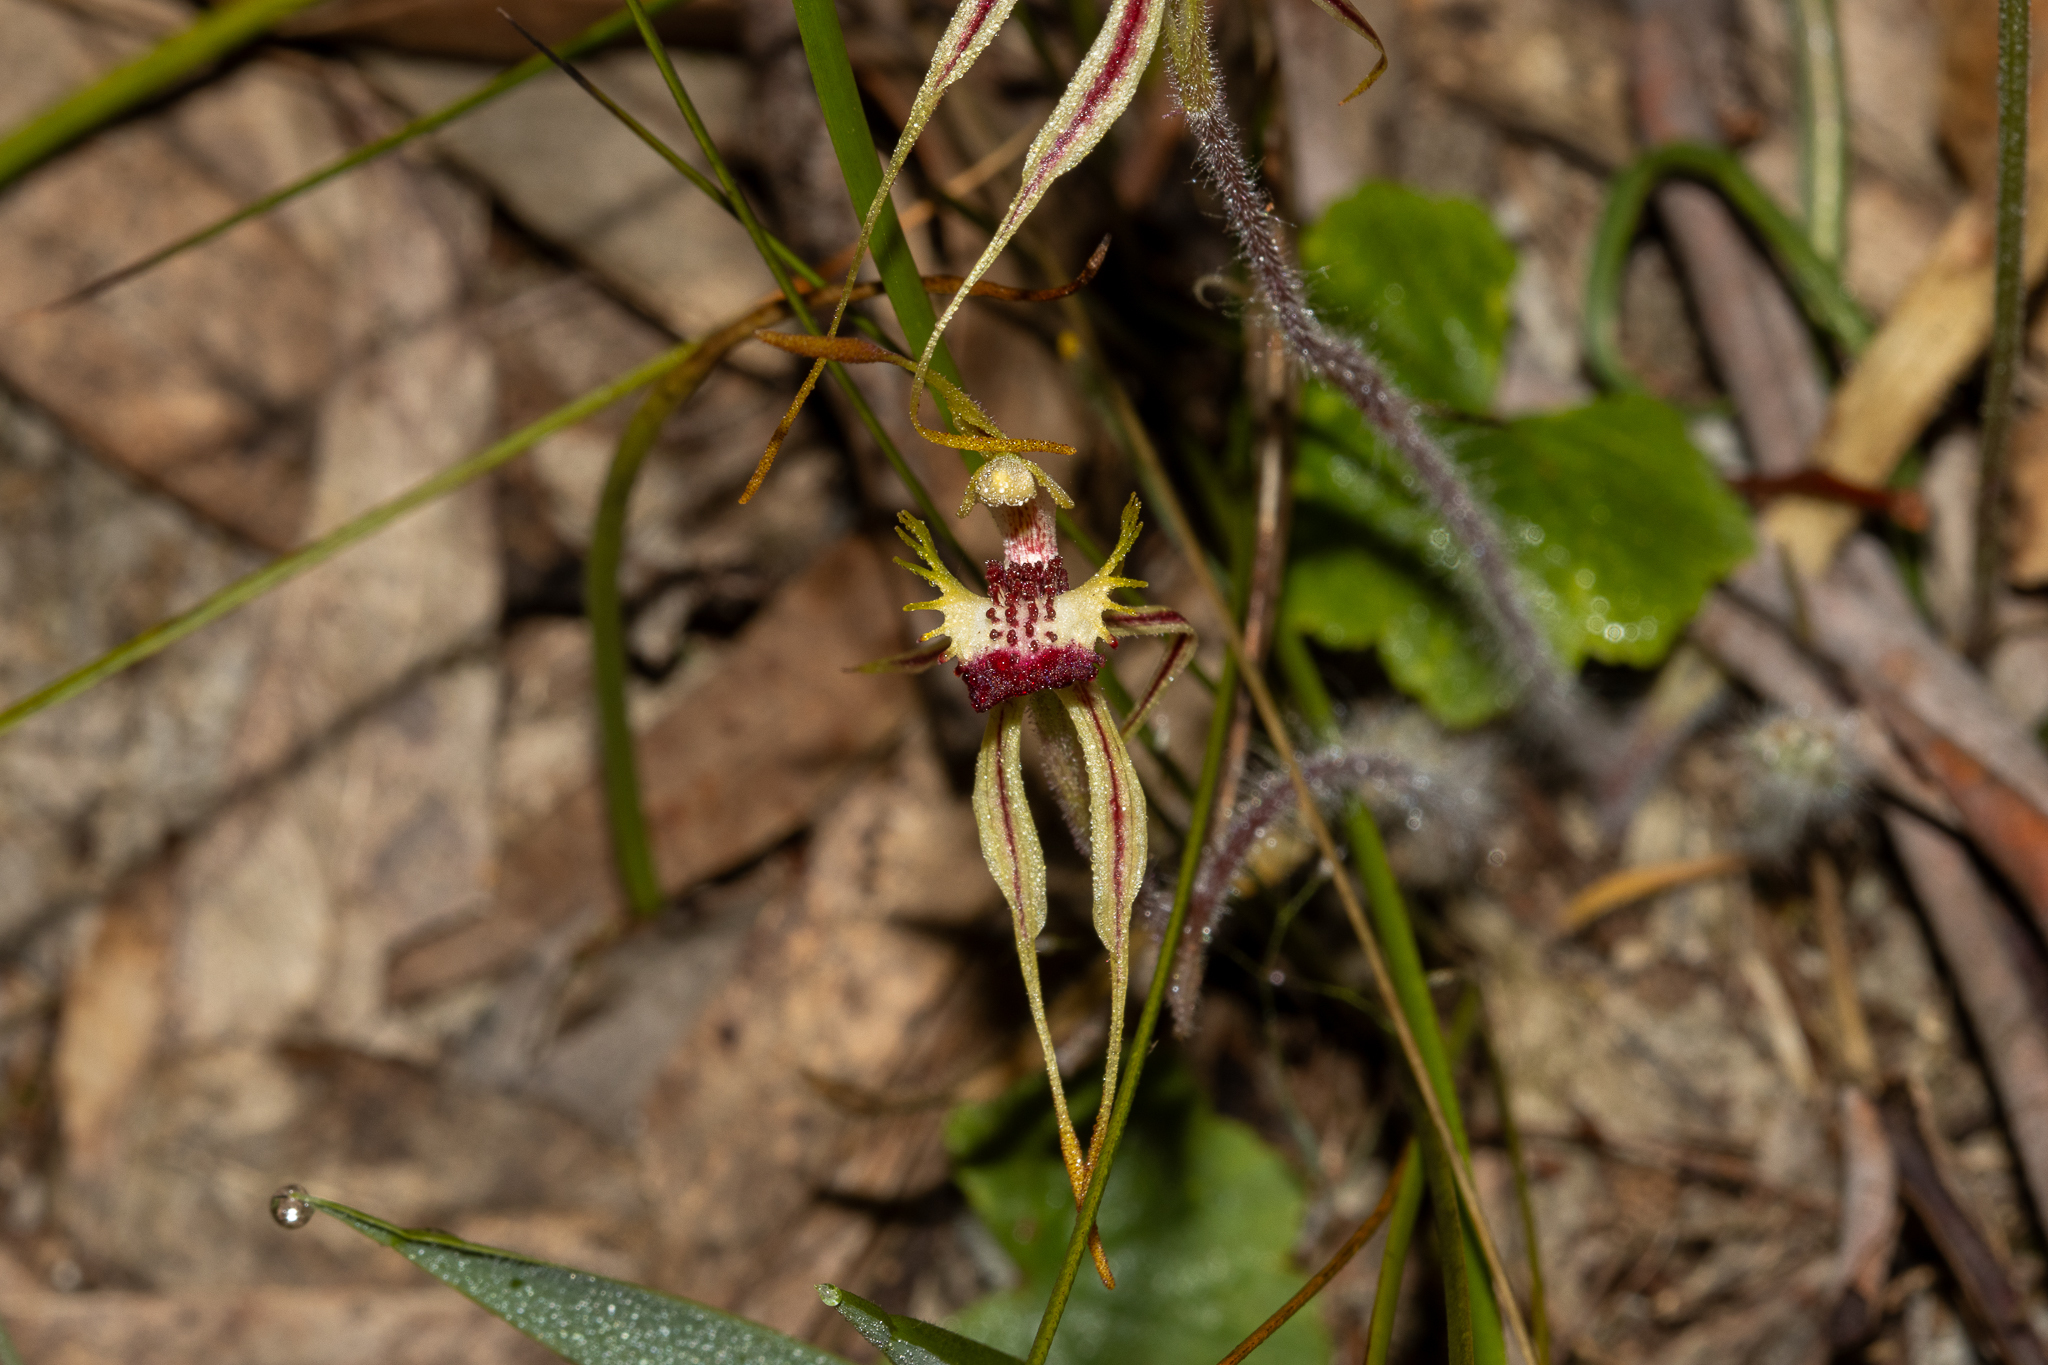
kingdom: Plantae
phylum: Tracheophyta
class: Liliopsida
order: Asparagales
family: Orchidaceae
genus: Caladenia
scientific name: Caladenia parva
